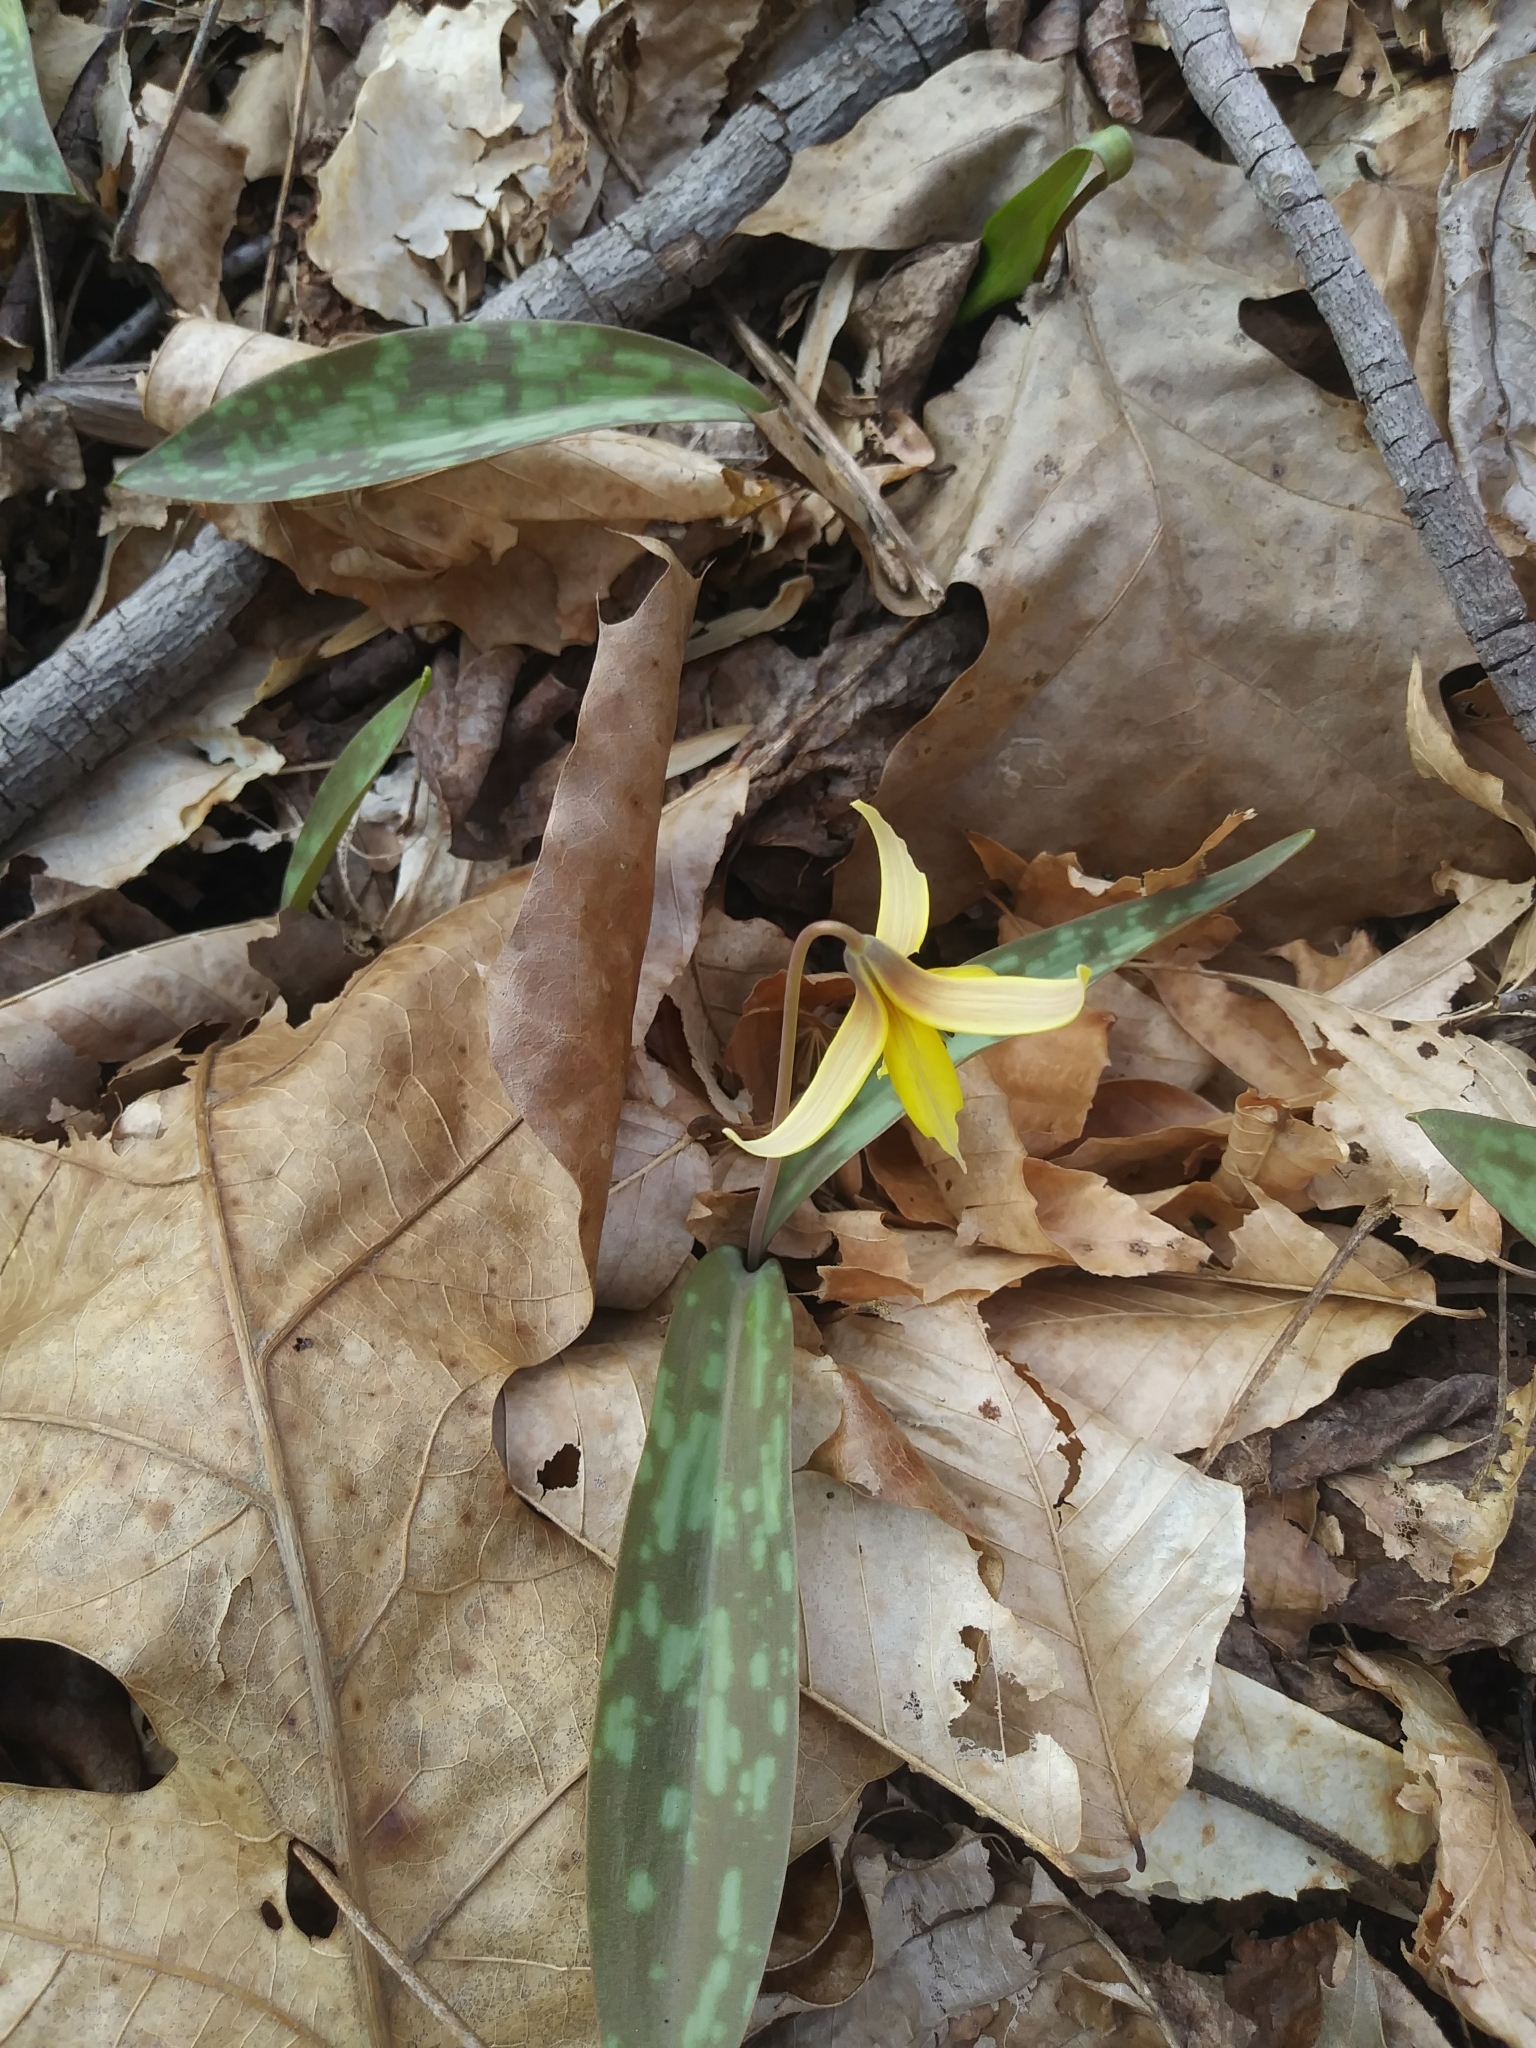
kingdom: Plantae
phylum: Tracheophyta
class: Liliopsida
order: Liliales
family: Liliaceae
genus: Erythronium
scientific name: Erythronium americanum
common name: Yellow adder's-tongue
